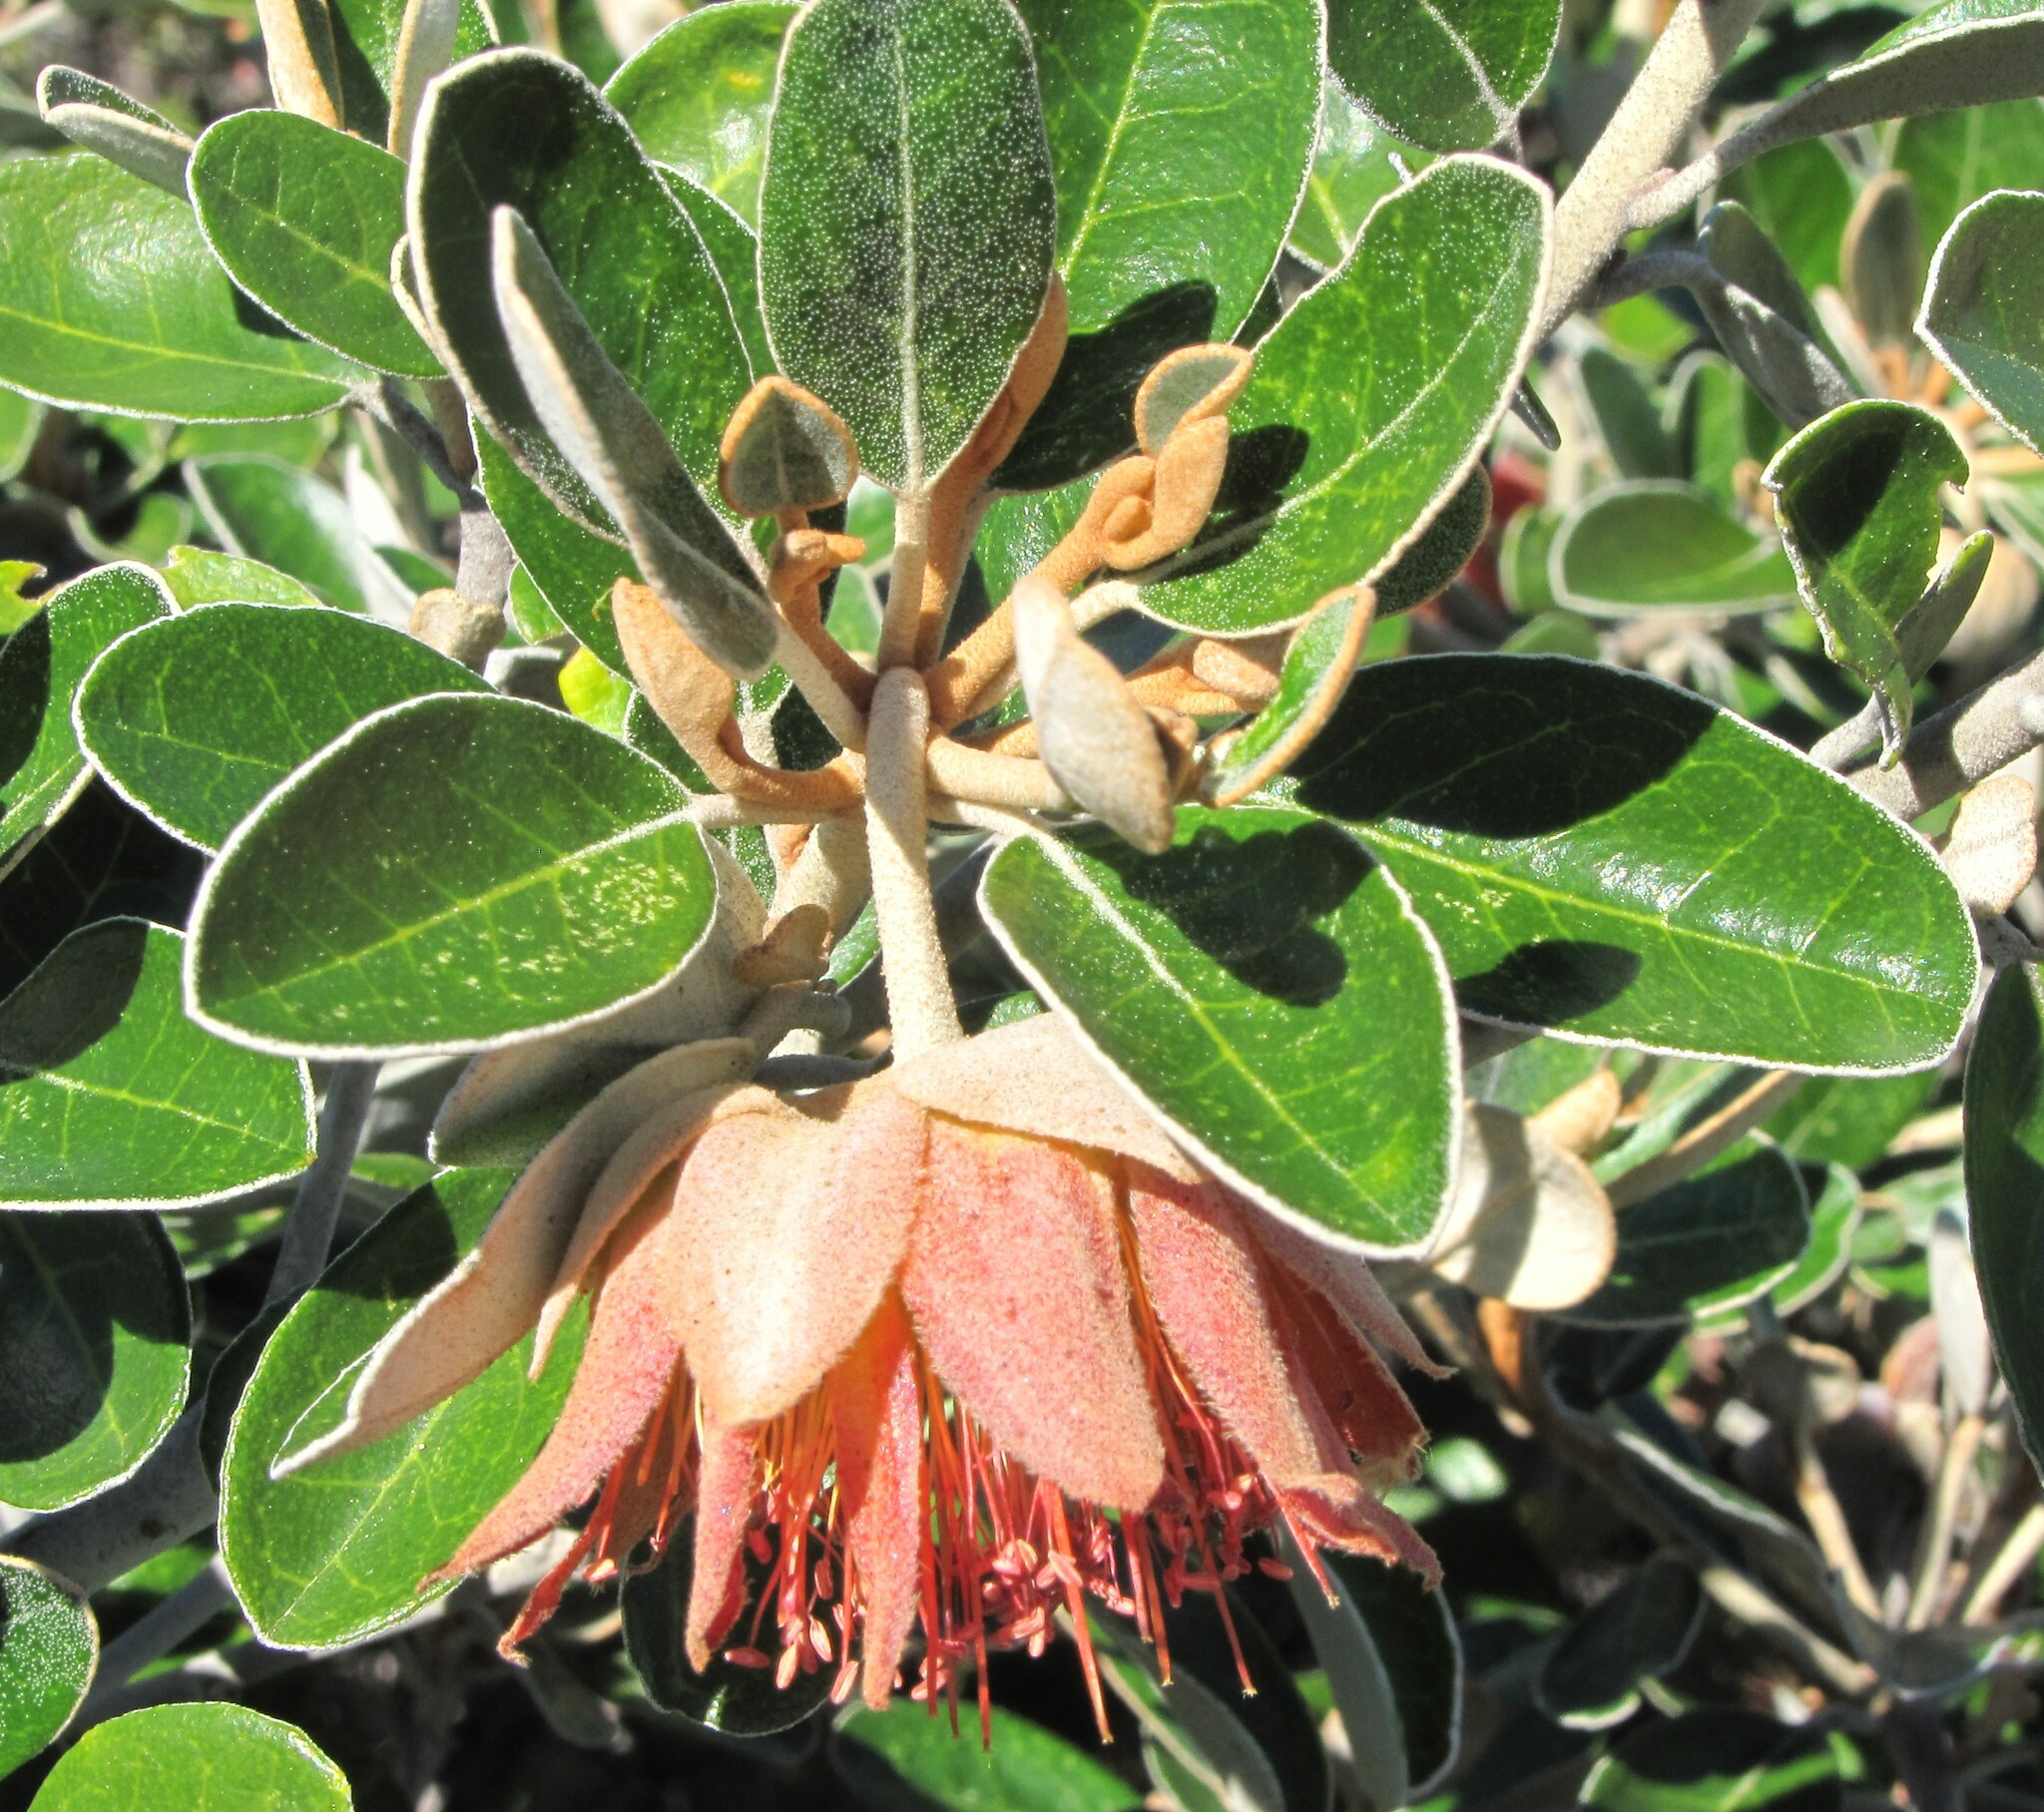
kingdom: Plantae
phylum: Tracheophyta
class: Magnoliopsida
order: Sapindales
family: Rutaceae
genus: Diplolaena
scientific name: Diplolaena grandiflora
